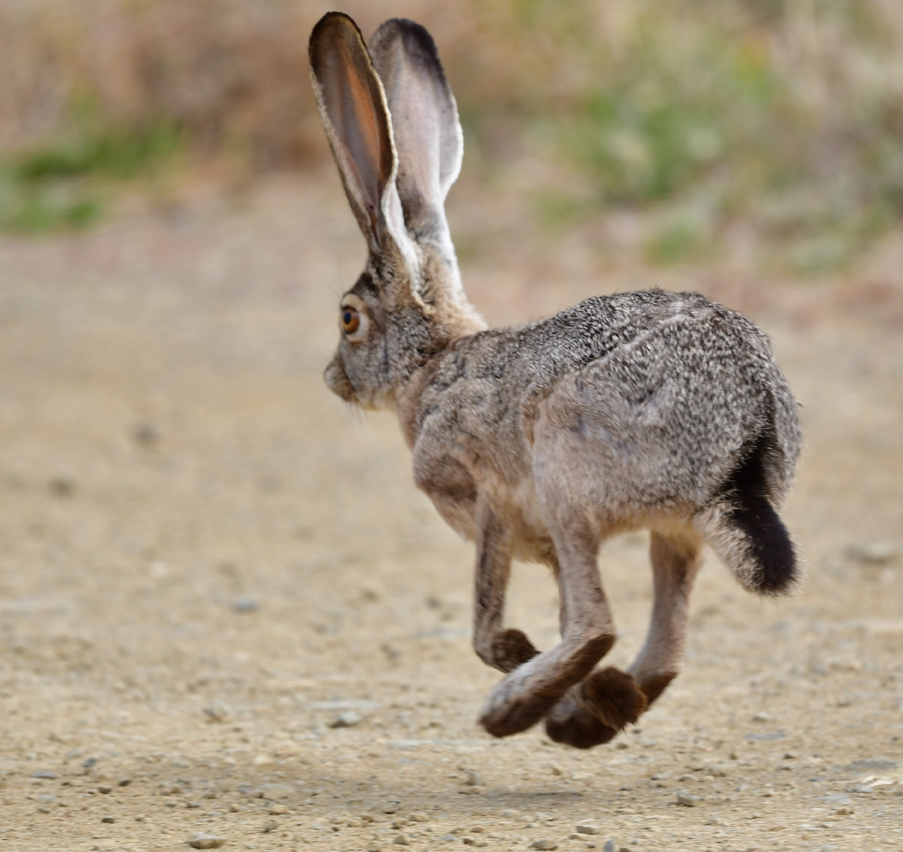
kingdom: Animalia
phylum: Chordata
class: Mammalia
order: Lagomorpha
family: Leporidae
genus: Lepus
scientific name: Lepus californicus
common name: Black-tailed jackrabbit
